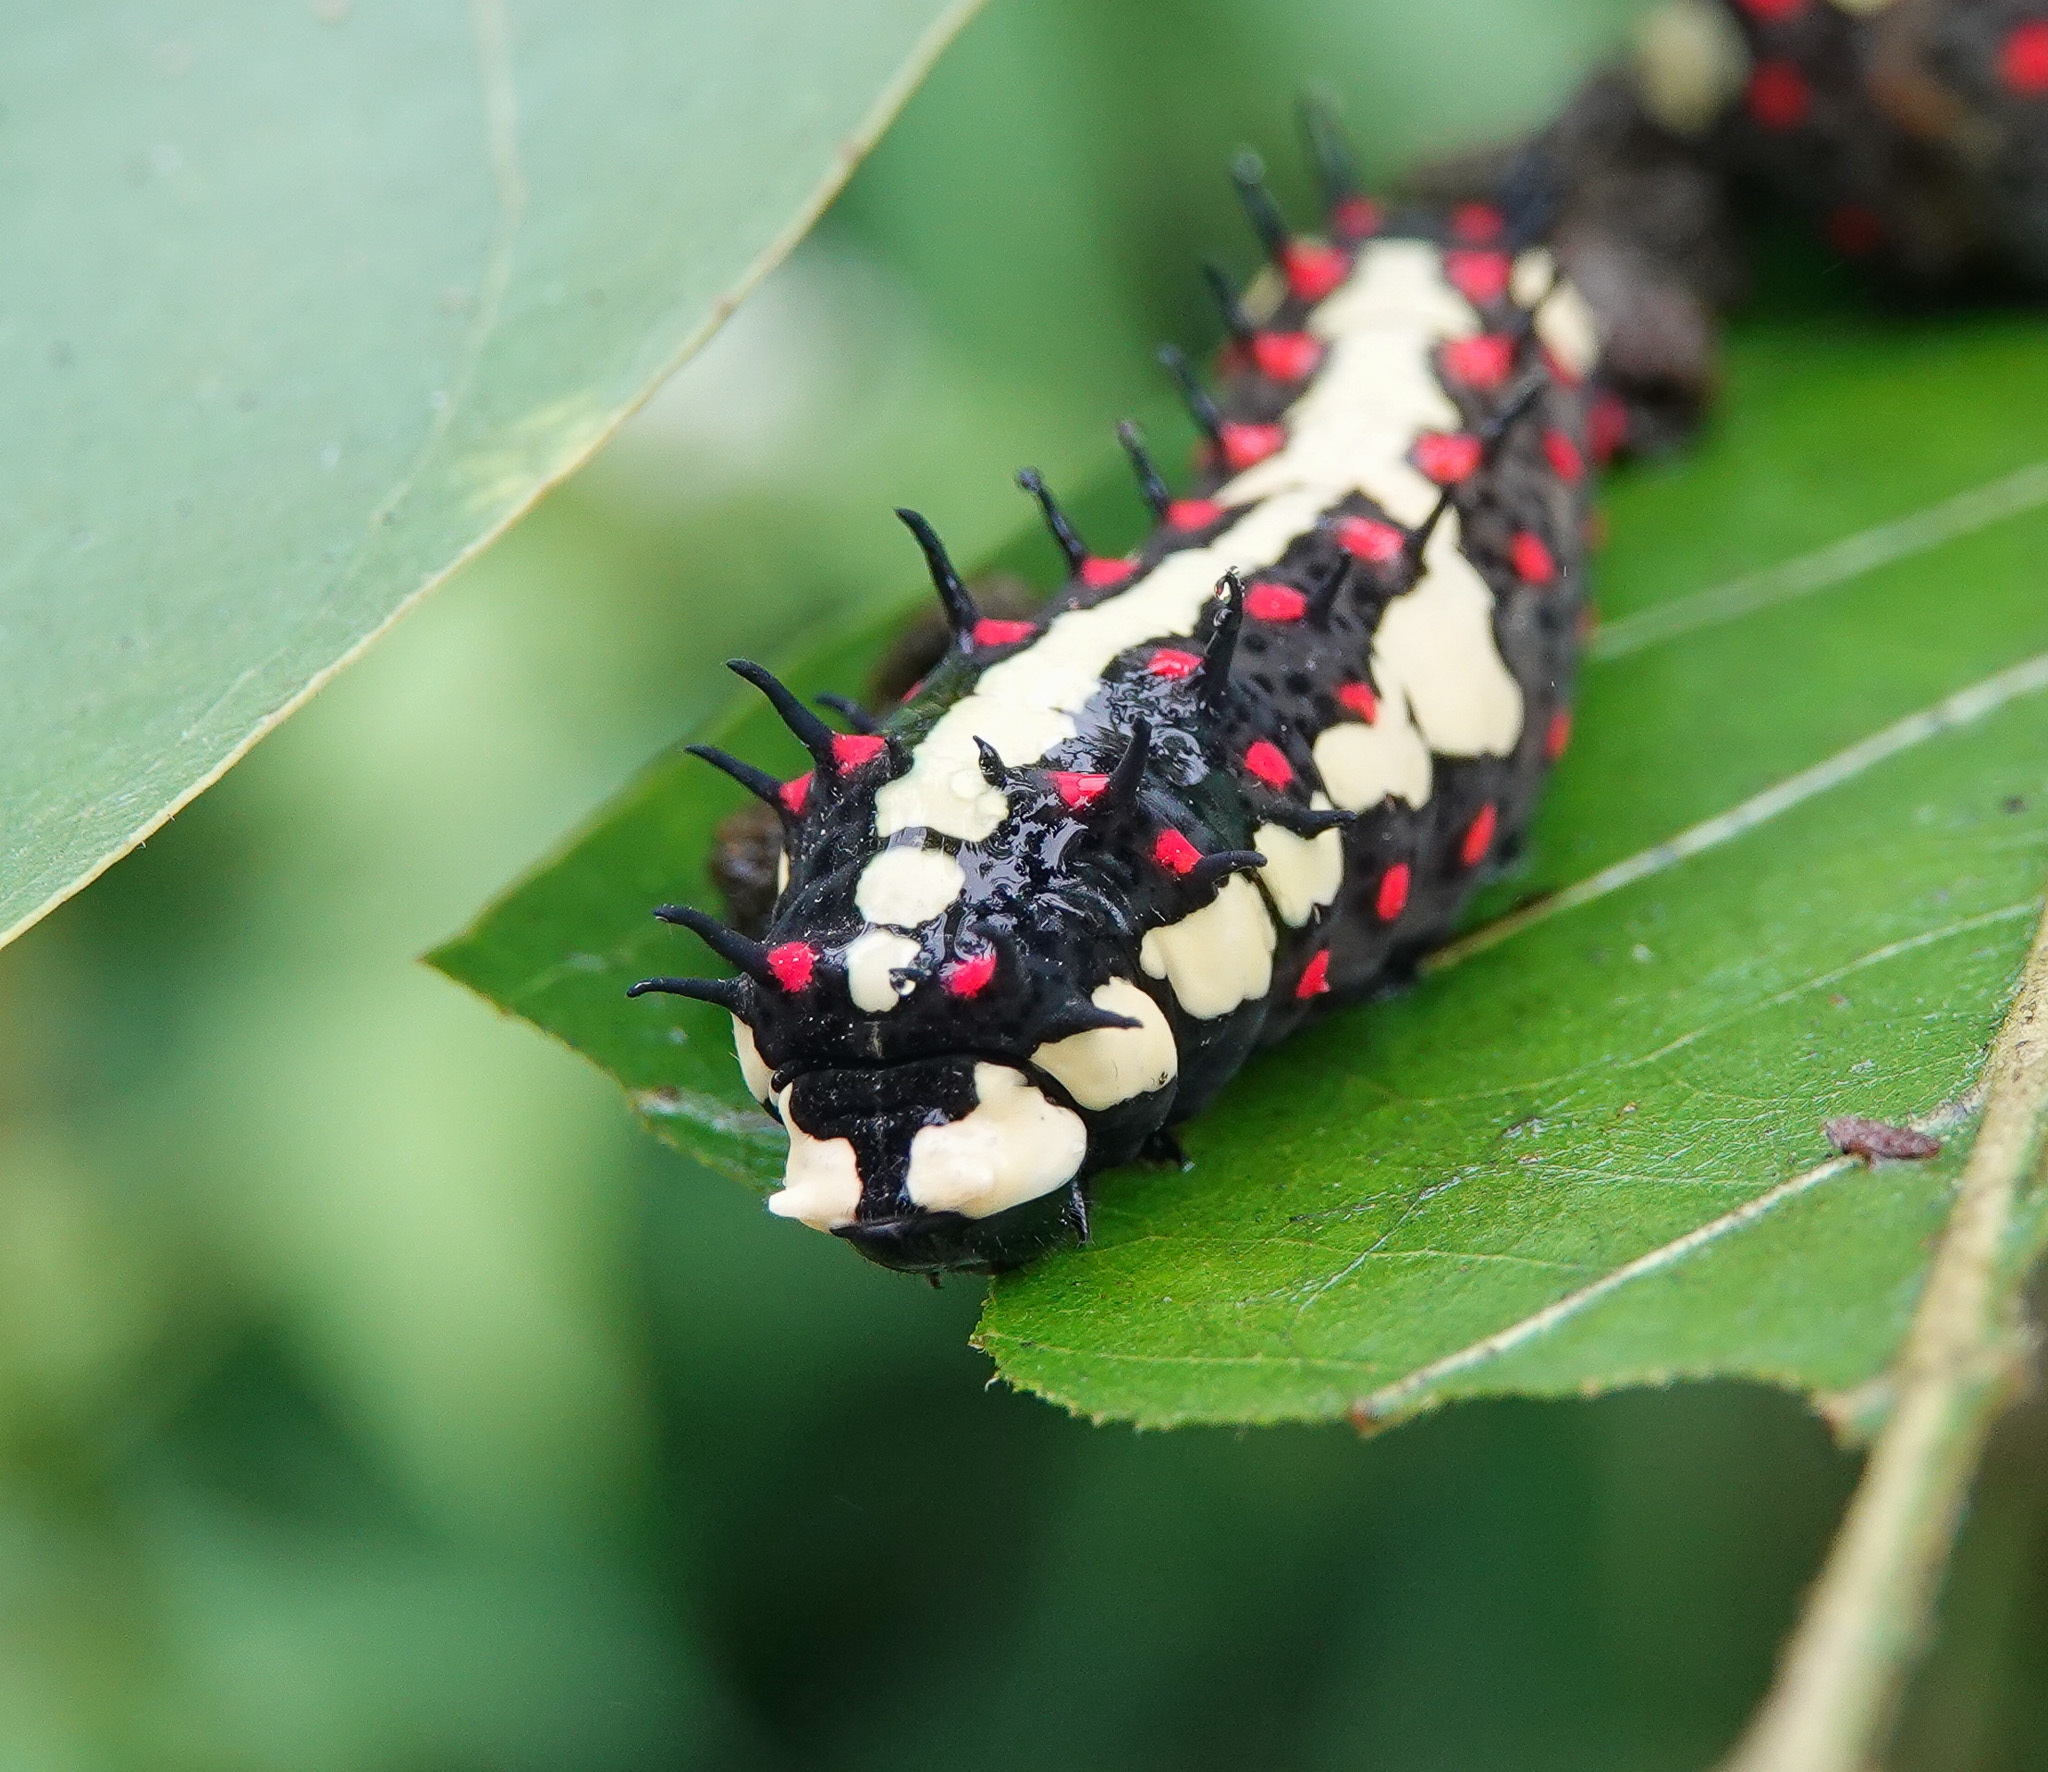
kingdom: Animalia
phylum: Arthropoda
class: Insecta
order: Lepidoptera
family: Papilionidae
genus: Chilasa
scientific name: Chilasa clytia
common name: Common mime
